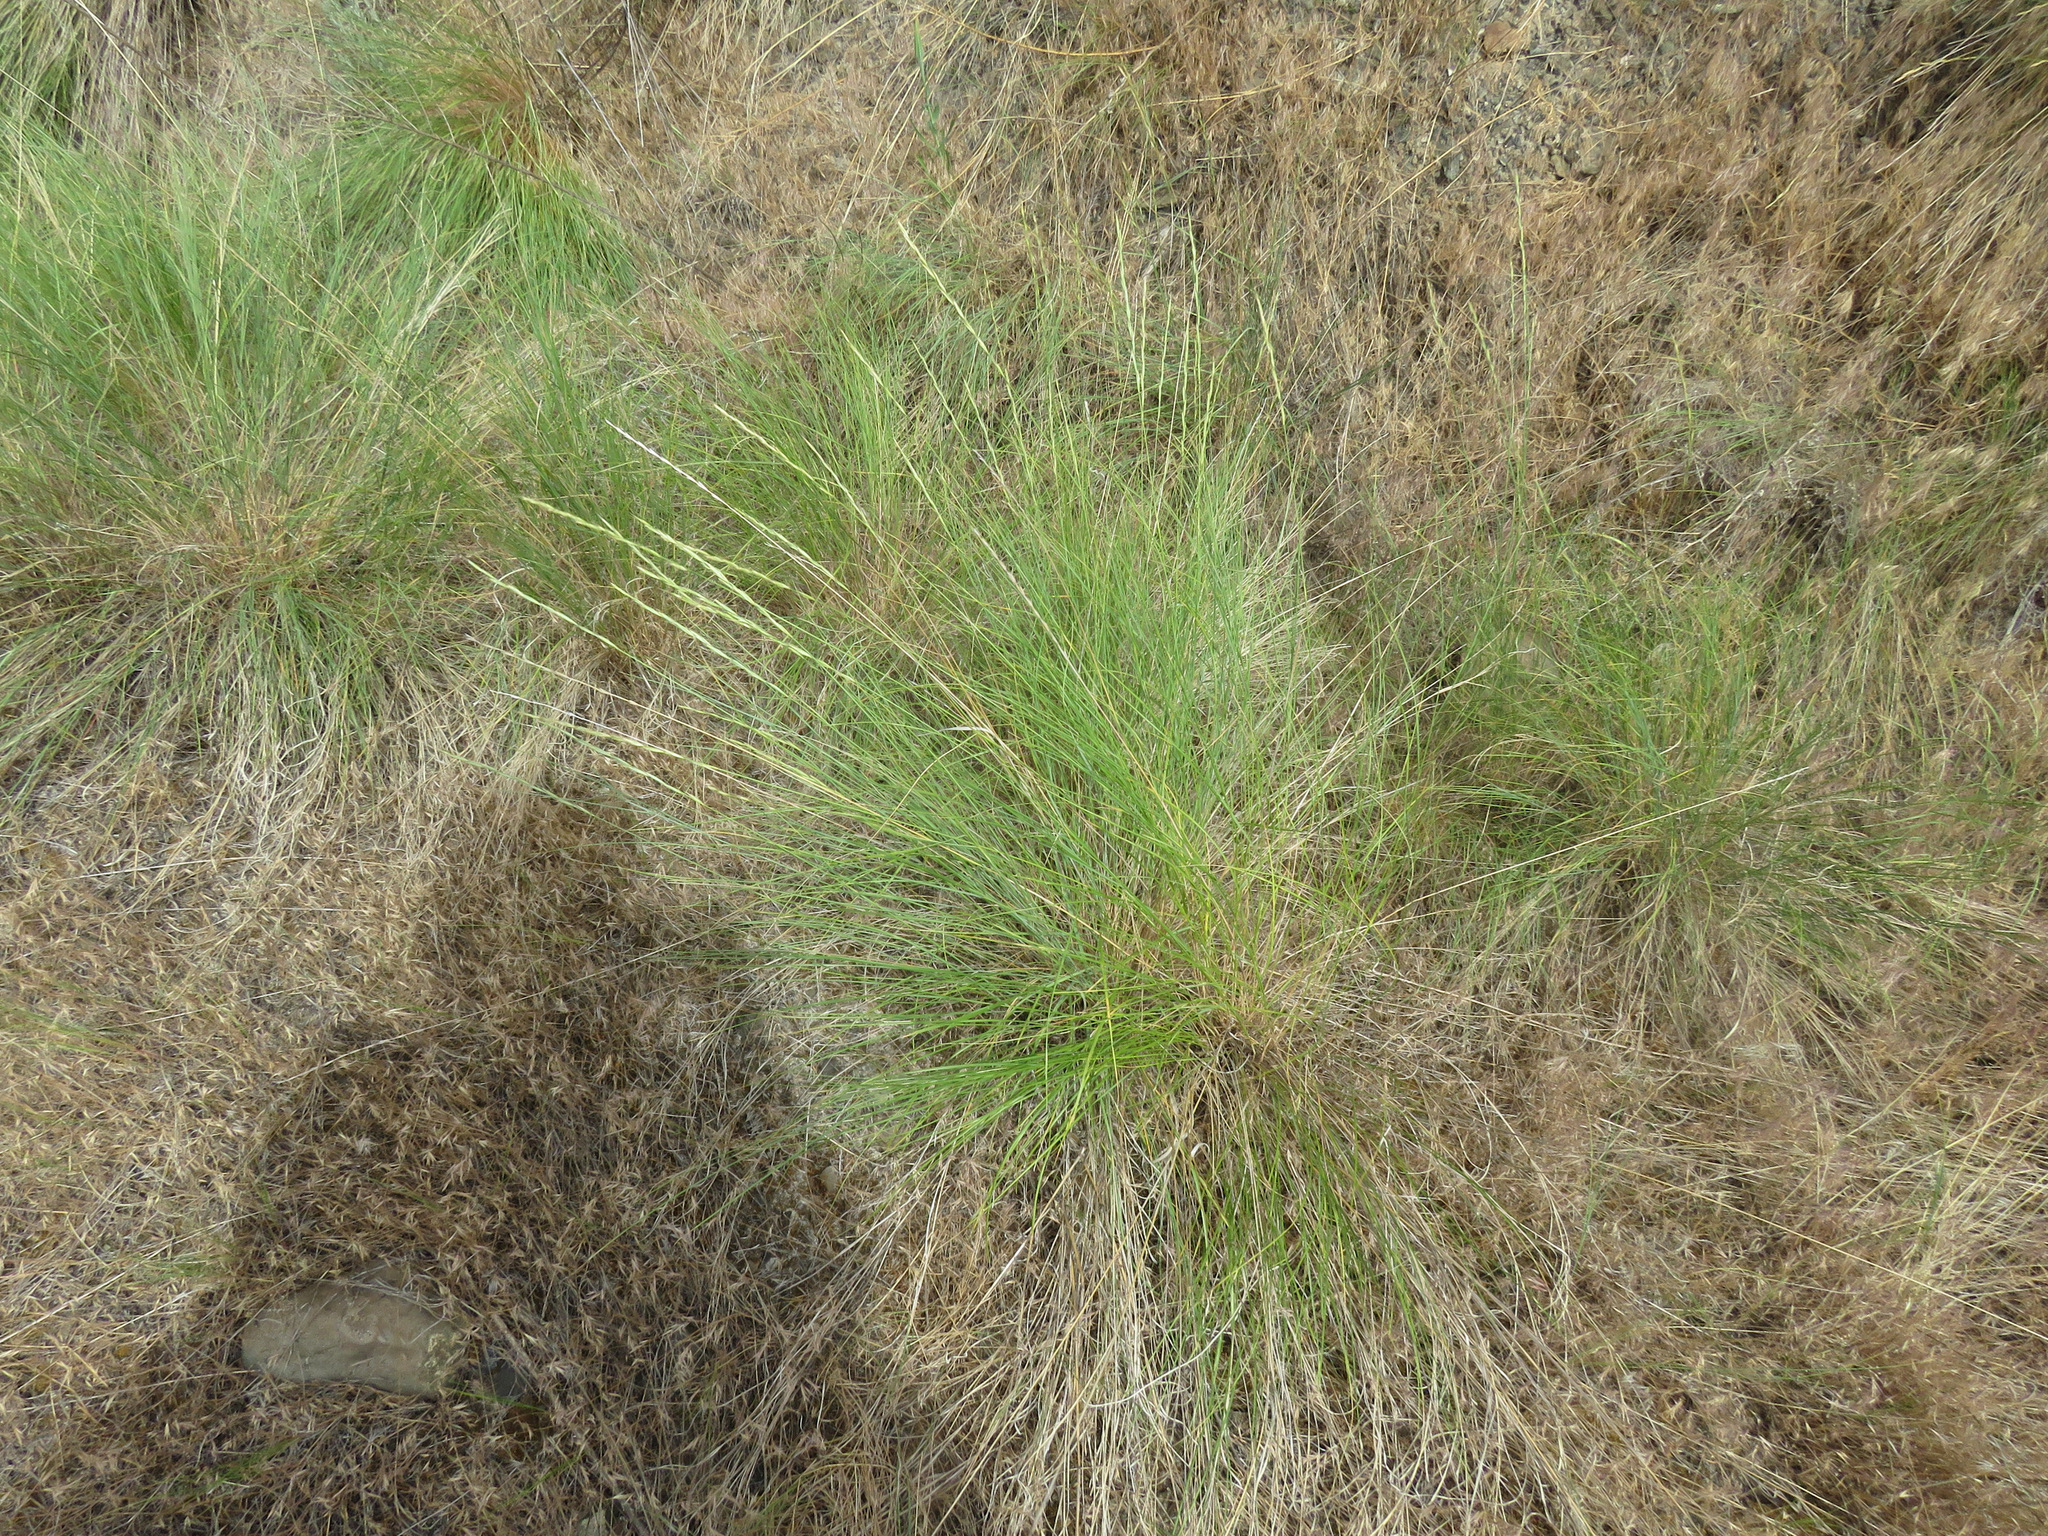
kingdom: Plantae
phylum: Tracheophyta
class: Liliopsida
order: Poales
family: Poaceae
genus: Pseudoroegneria
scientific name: Pseudoroegneria spicata
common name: Bluebunch wheatgrass
